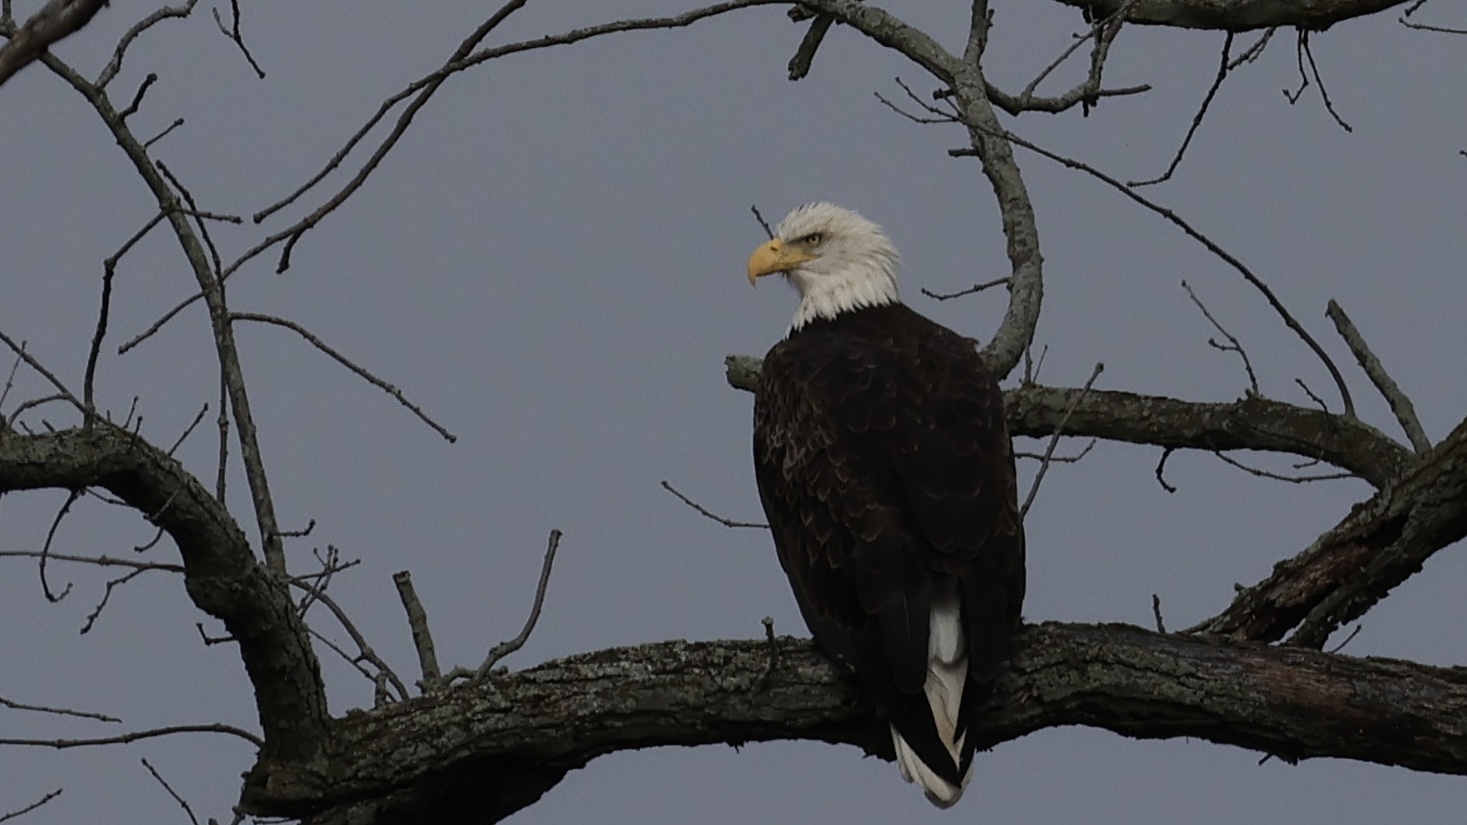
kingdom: Animalia
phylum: Chordata
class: Aves
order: Accipitriformes
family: Accipitridae
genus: Haliaeetus
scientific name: Haliaeetus leucocephalus
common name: Bald eagle
